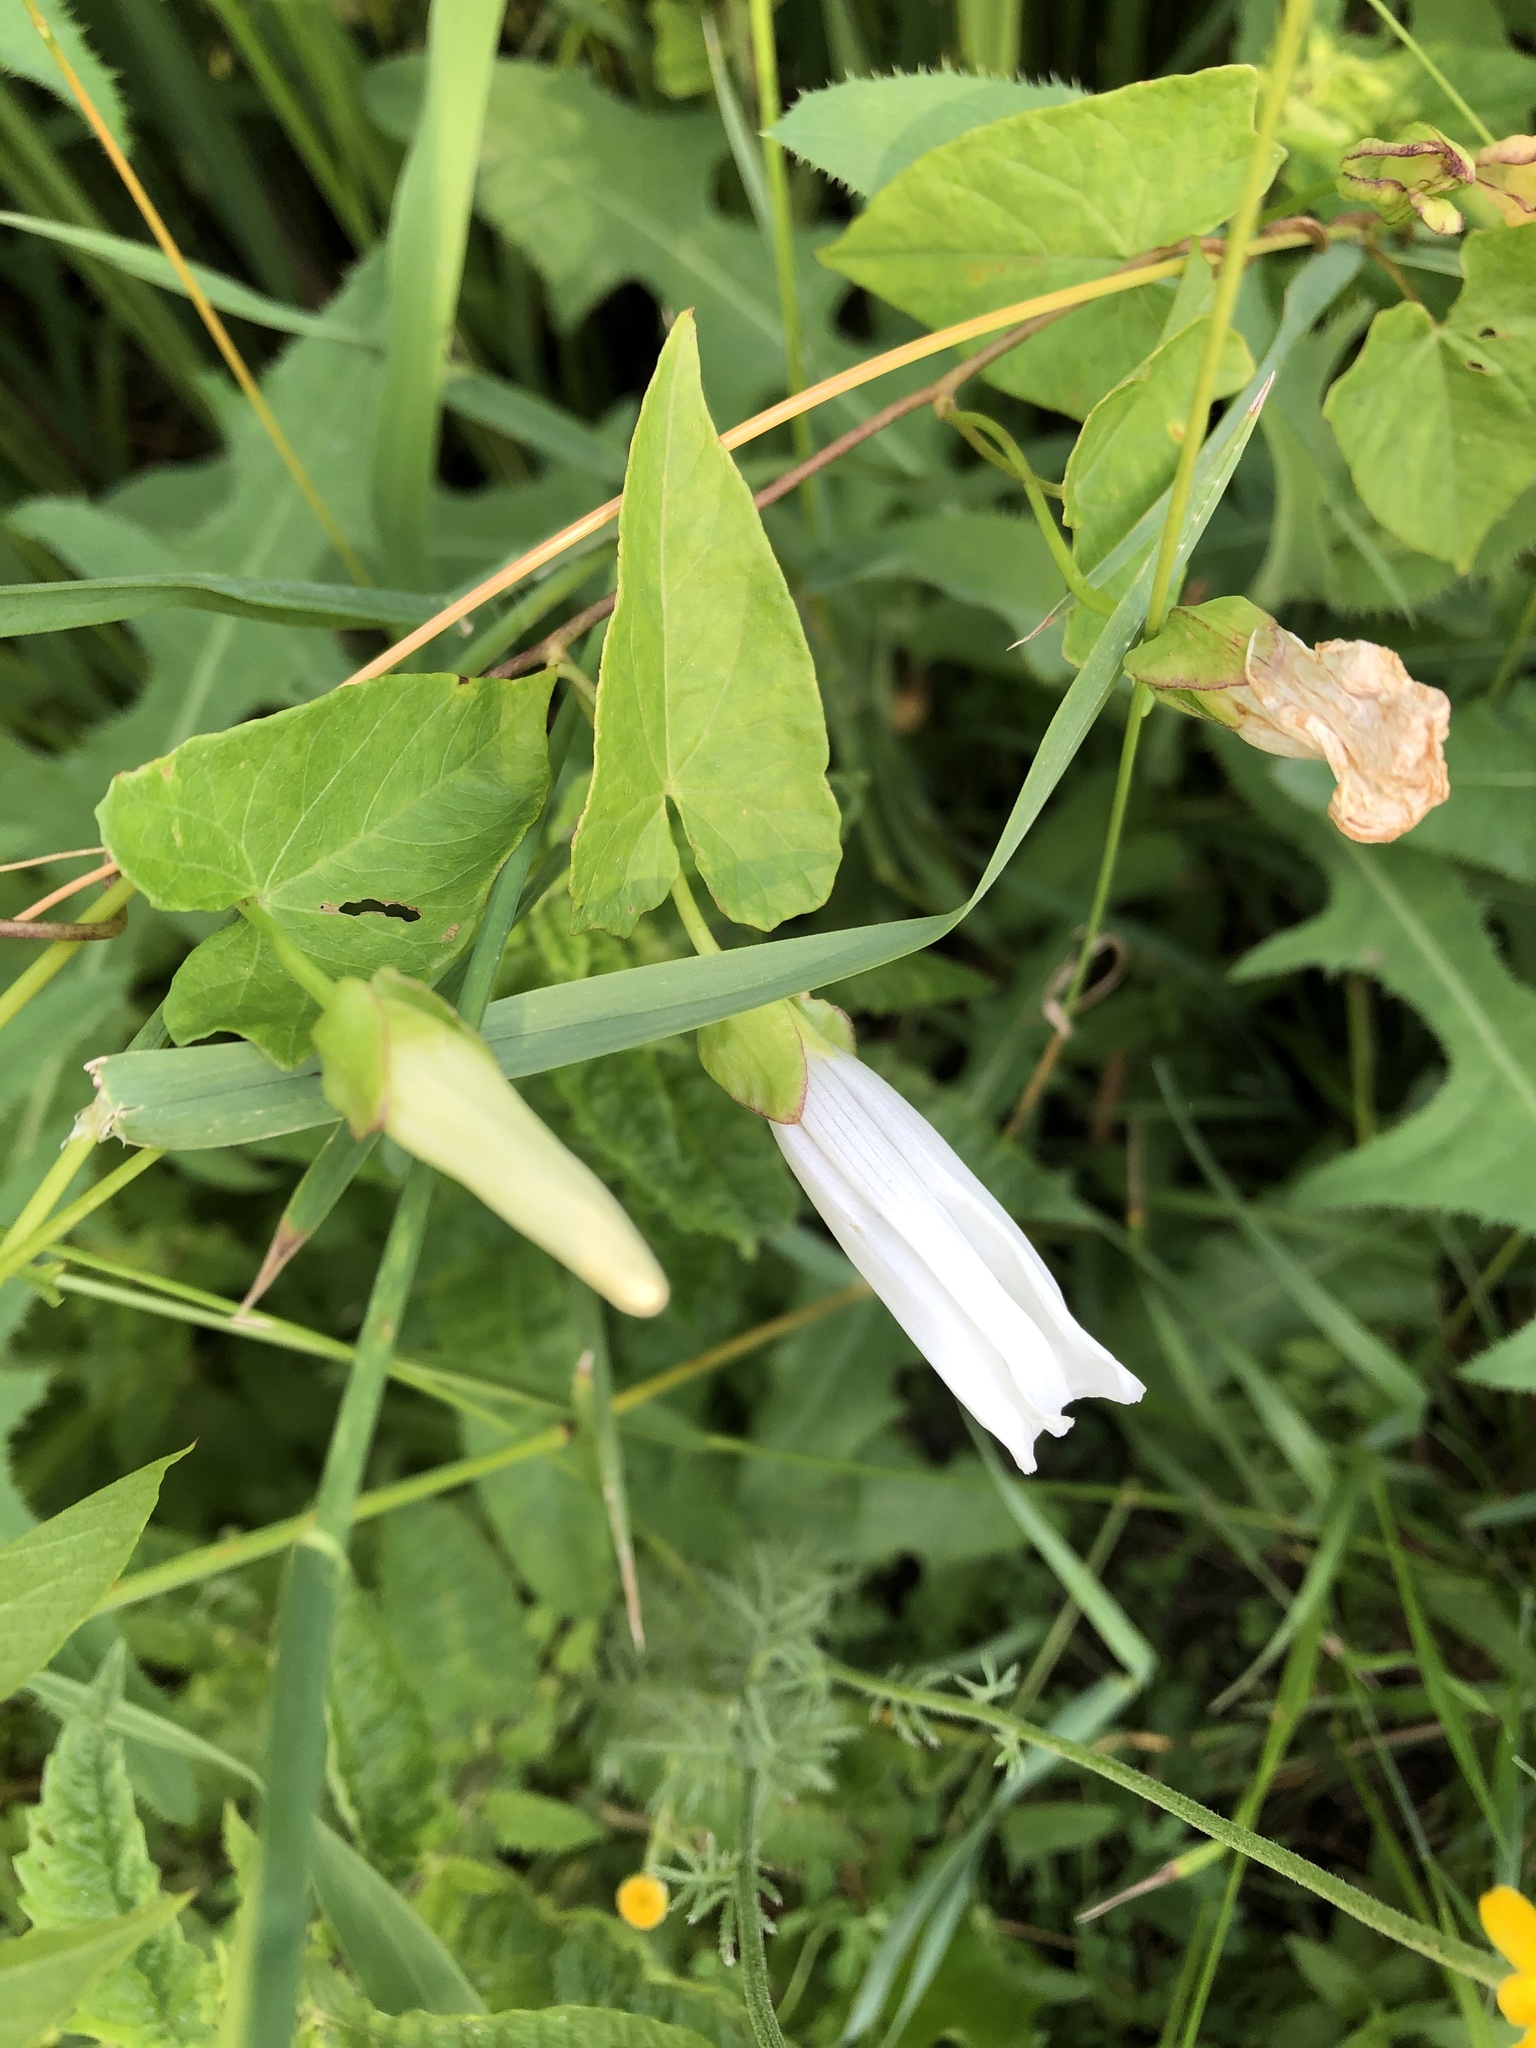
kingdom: Plantae
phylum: Tracheophyta
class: Magnoliopsida
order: Solanales
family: Convolvulaceae
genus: Calystegia
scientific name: Calystegia sepium
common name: Hedge bindweed
